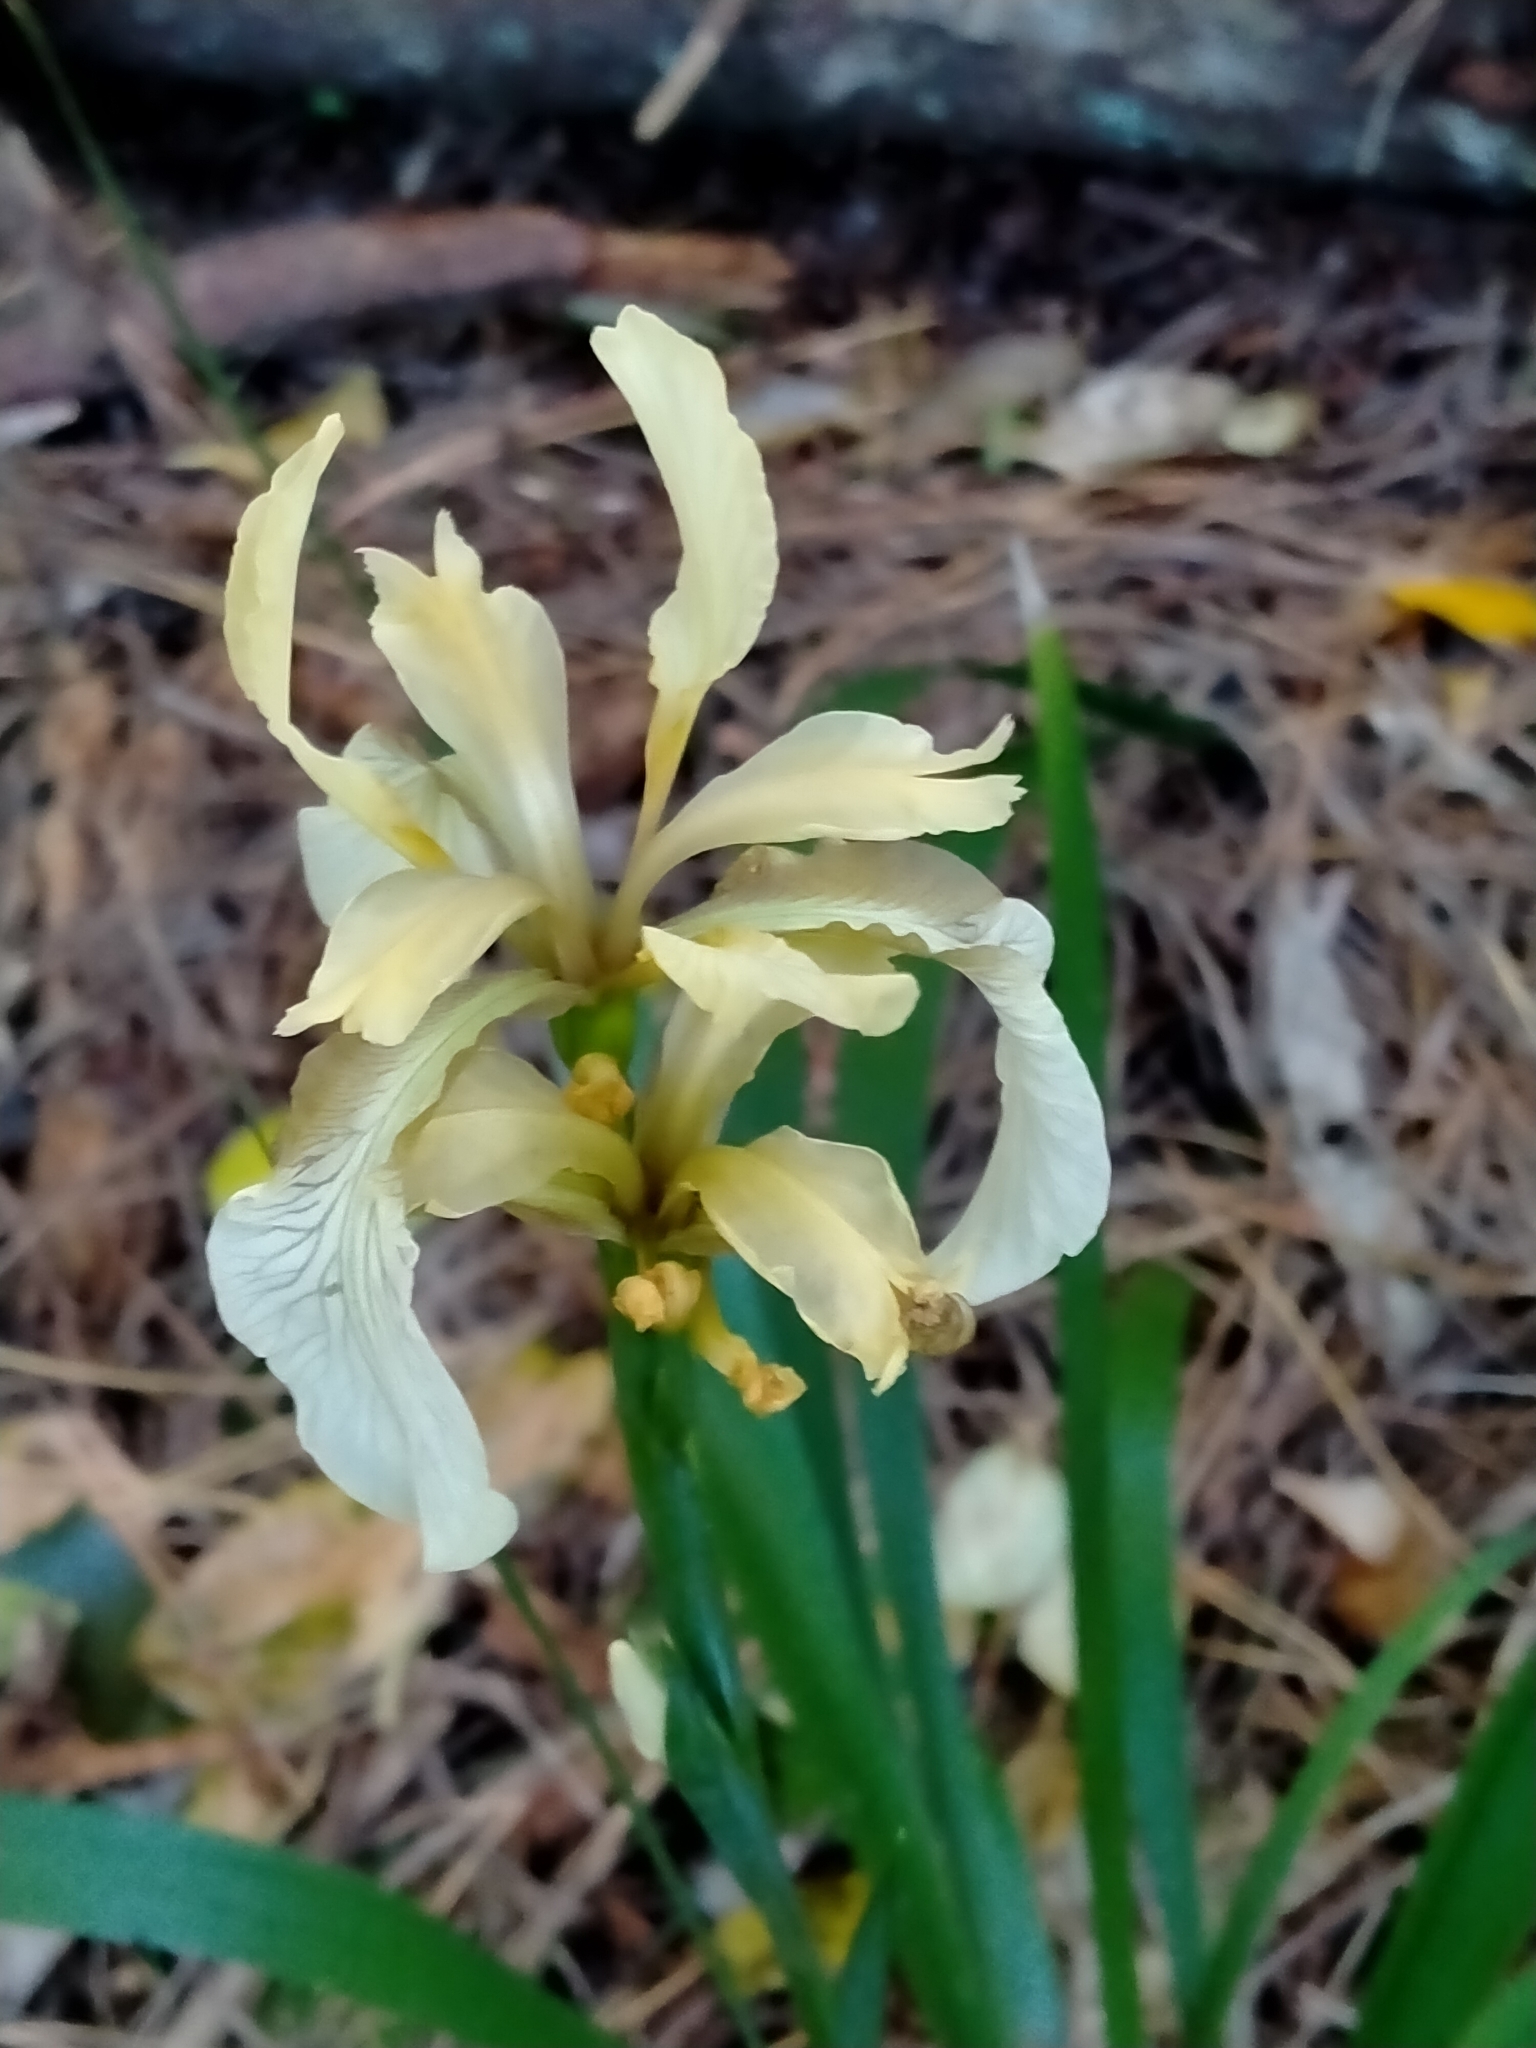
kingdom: Plantae
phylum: Tracheophyta
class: Liliopsida
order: Asparagales
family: Iridaceae
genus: Iris
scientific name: Iris foetidissima
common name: Stinking iris
